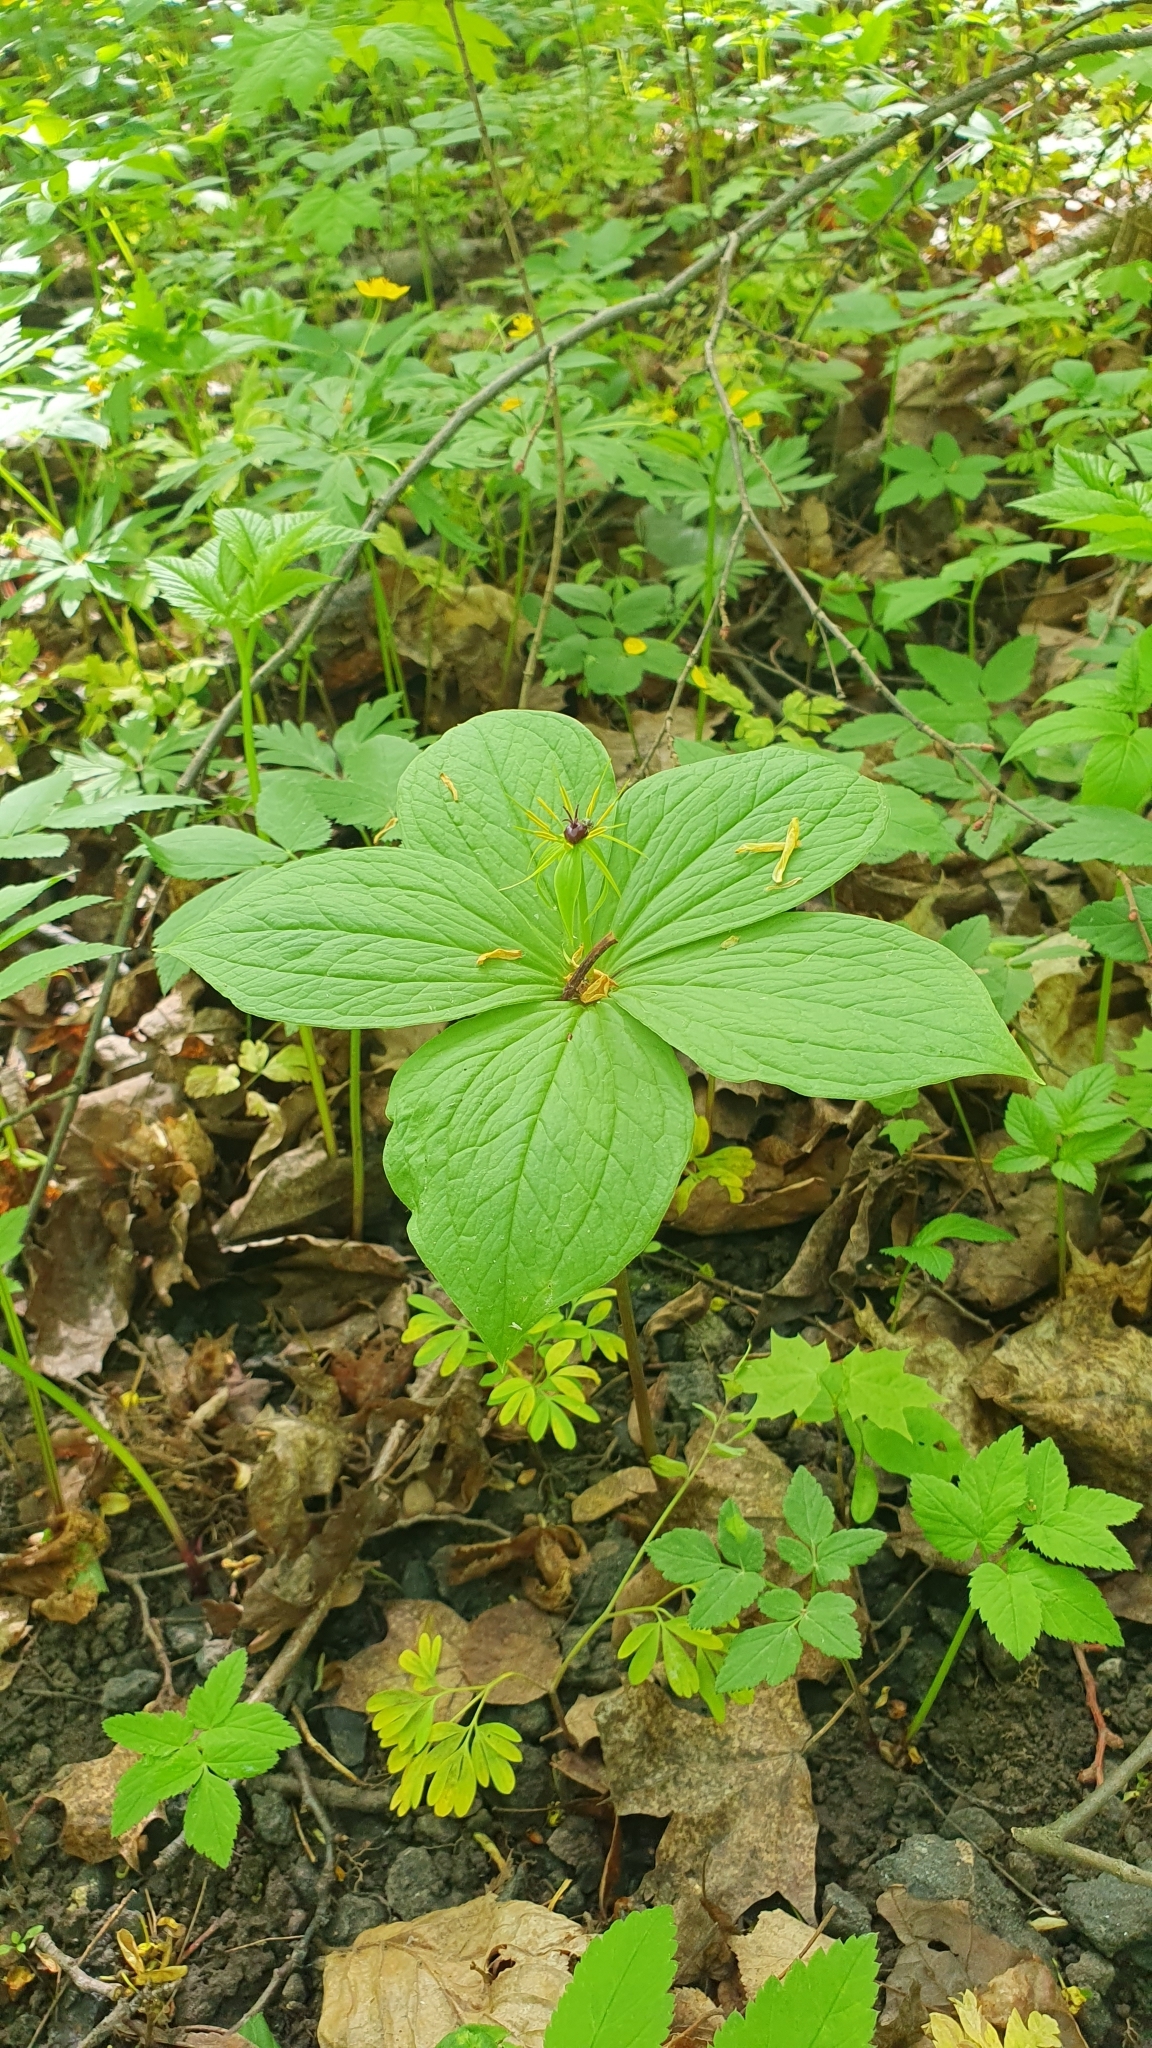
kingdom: Plantae
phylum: Tracheophyta
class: Liliopsida
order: Liliales
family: Melanthiaceae
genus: Paris
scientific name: Paris quadrifolia
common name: Herb-paris
